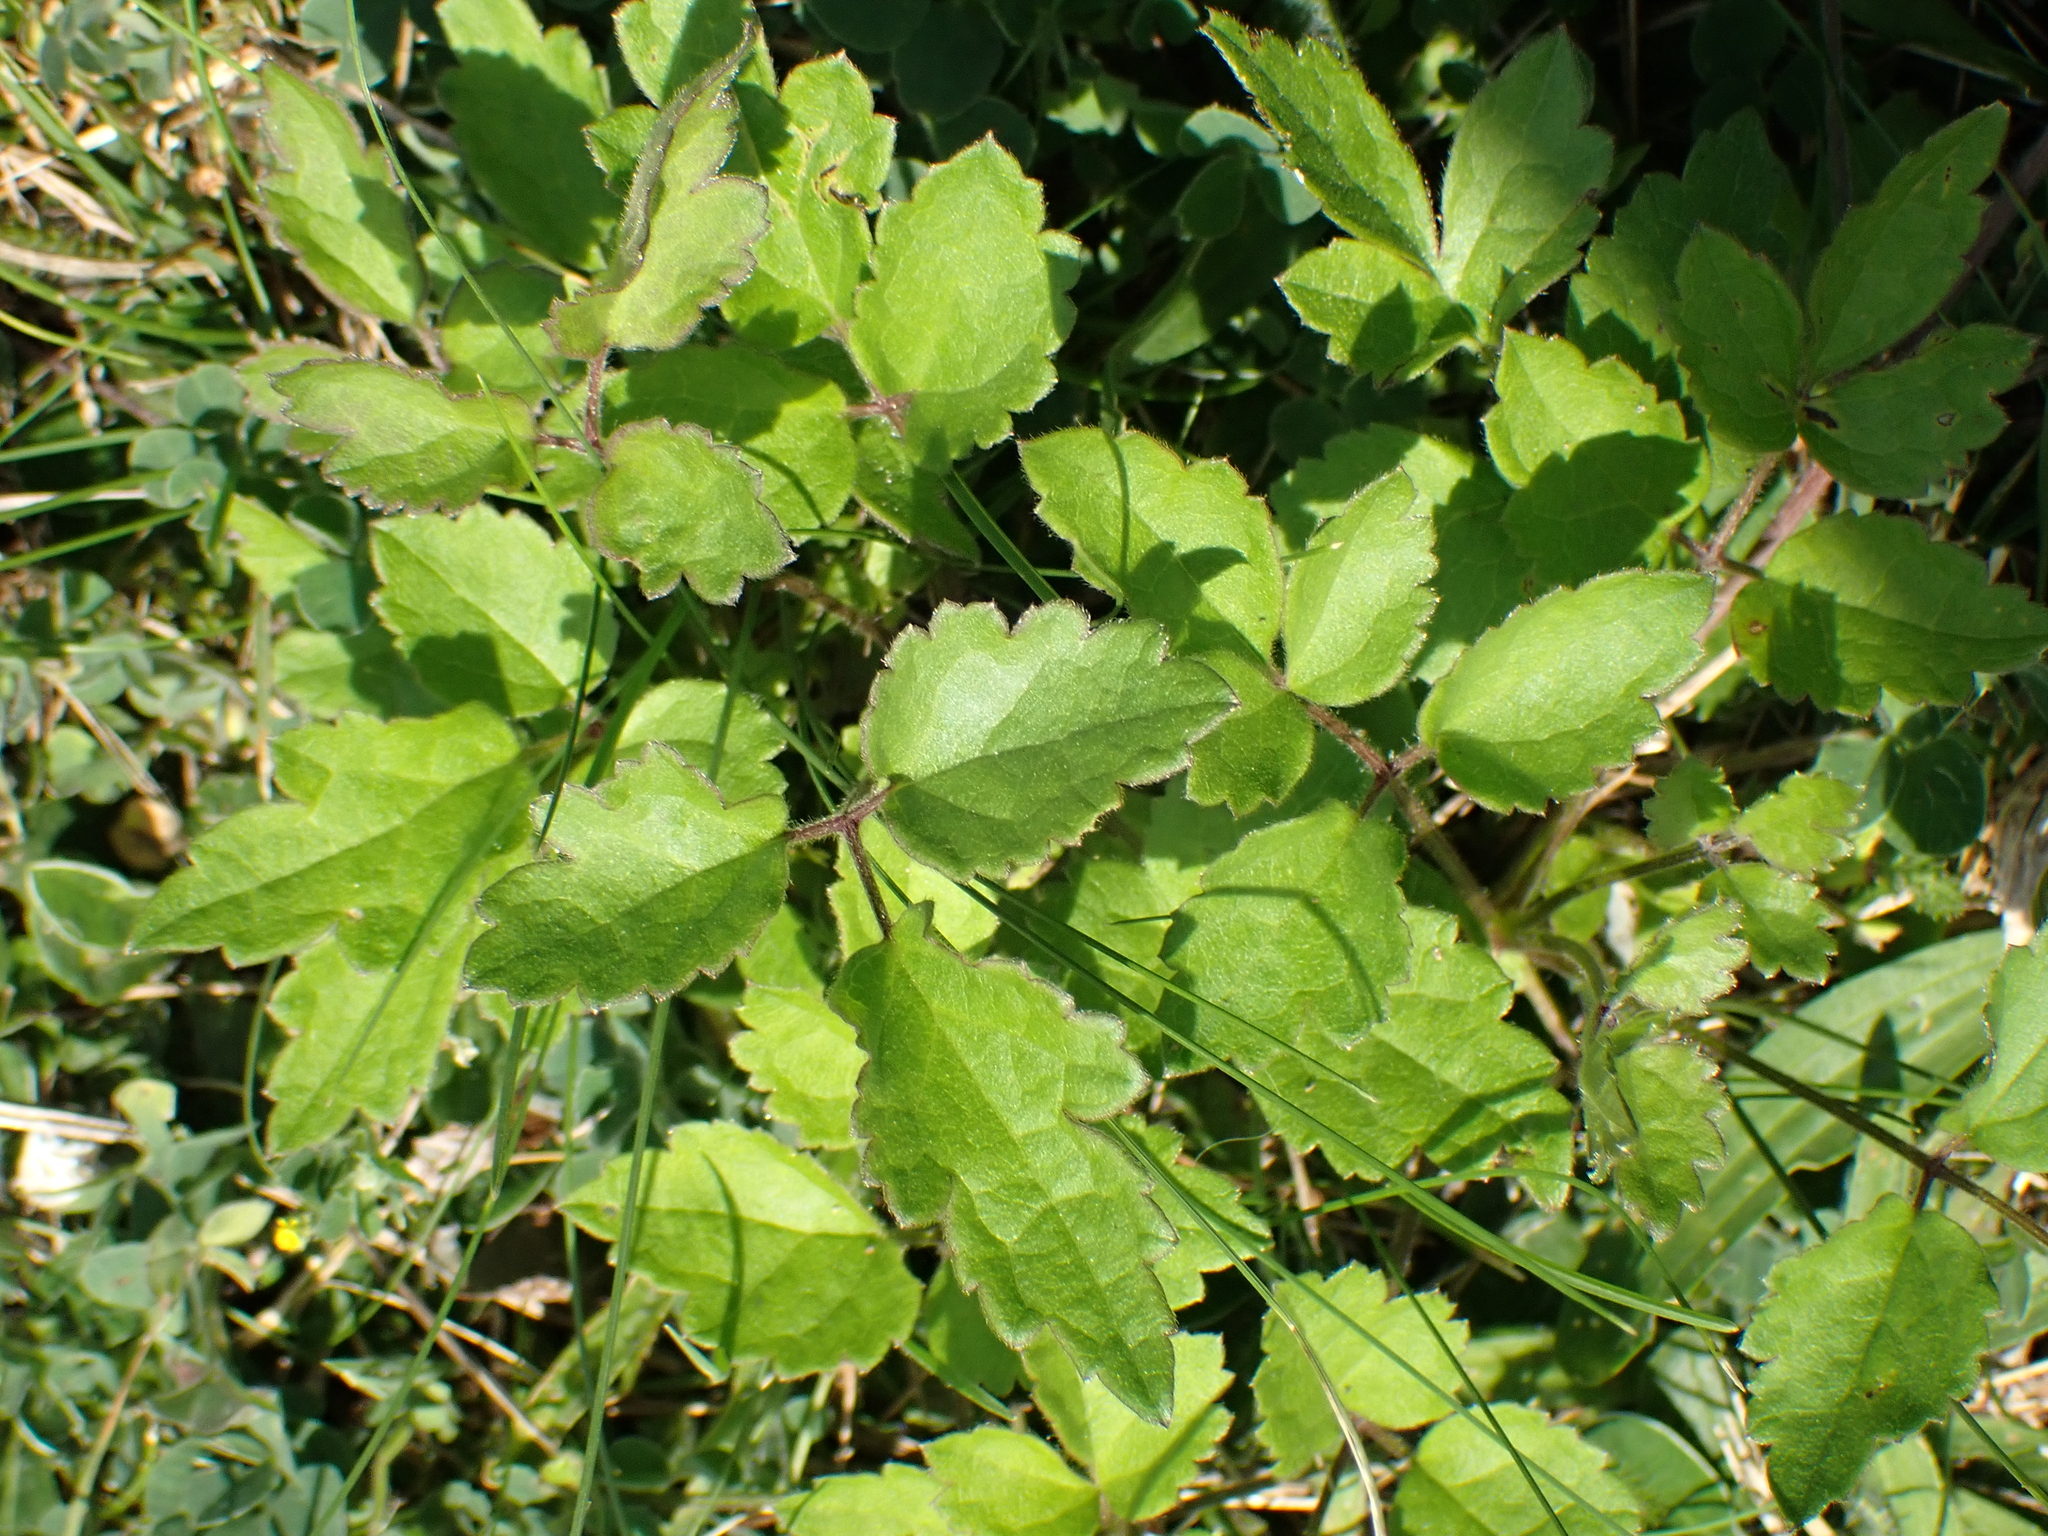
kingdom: Plantae
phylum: Tracheophyta
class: Magnoliopsida
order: Ranunculales
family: Ranunculaceae
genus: Clematis
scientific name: Clematis vitalba
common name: Evergreen clematis
